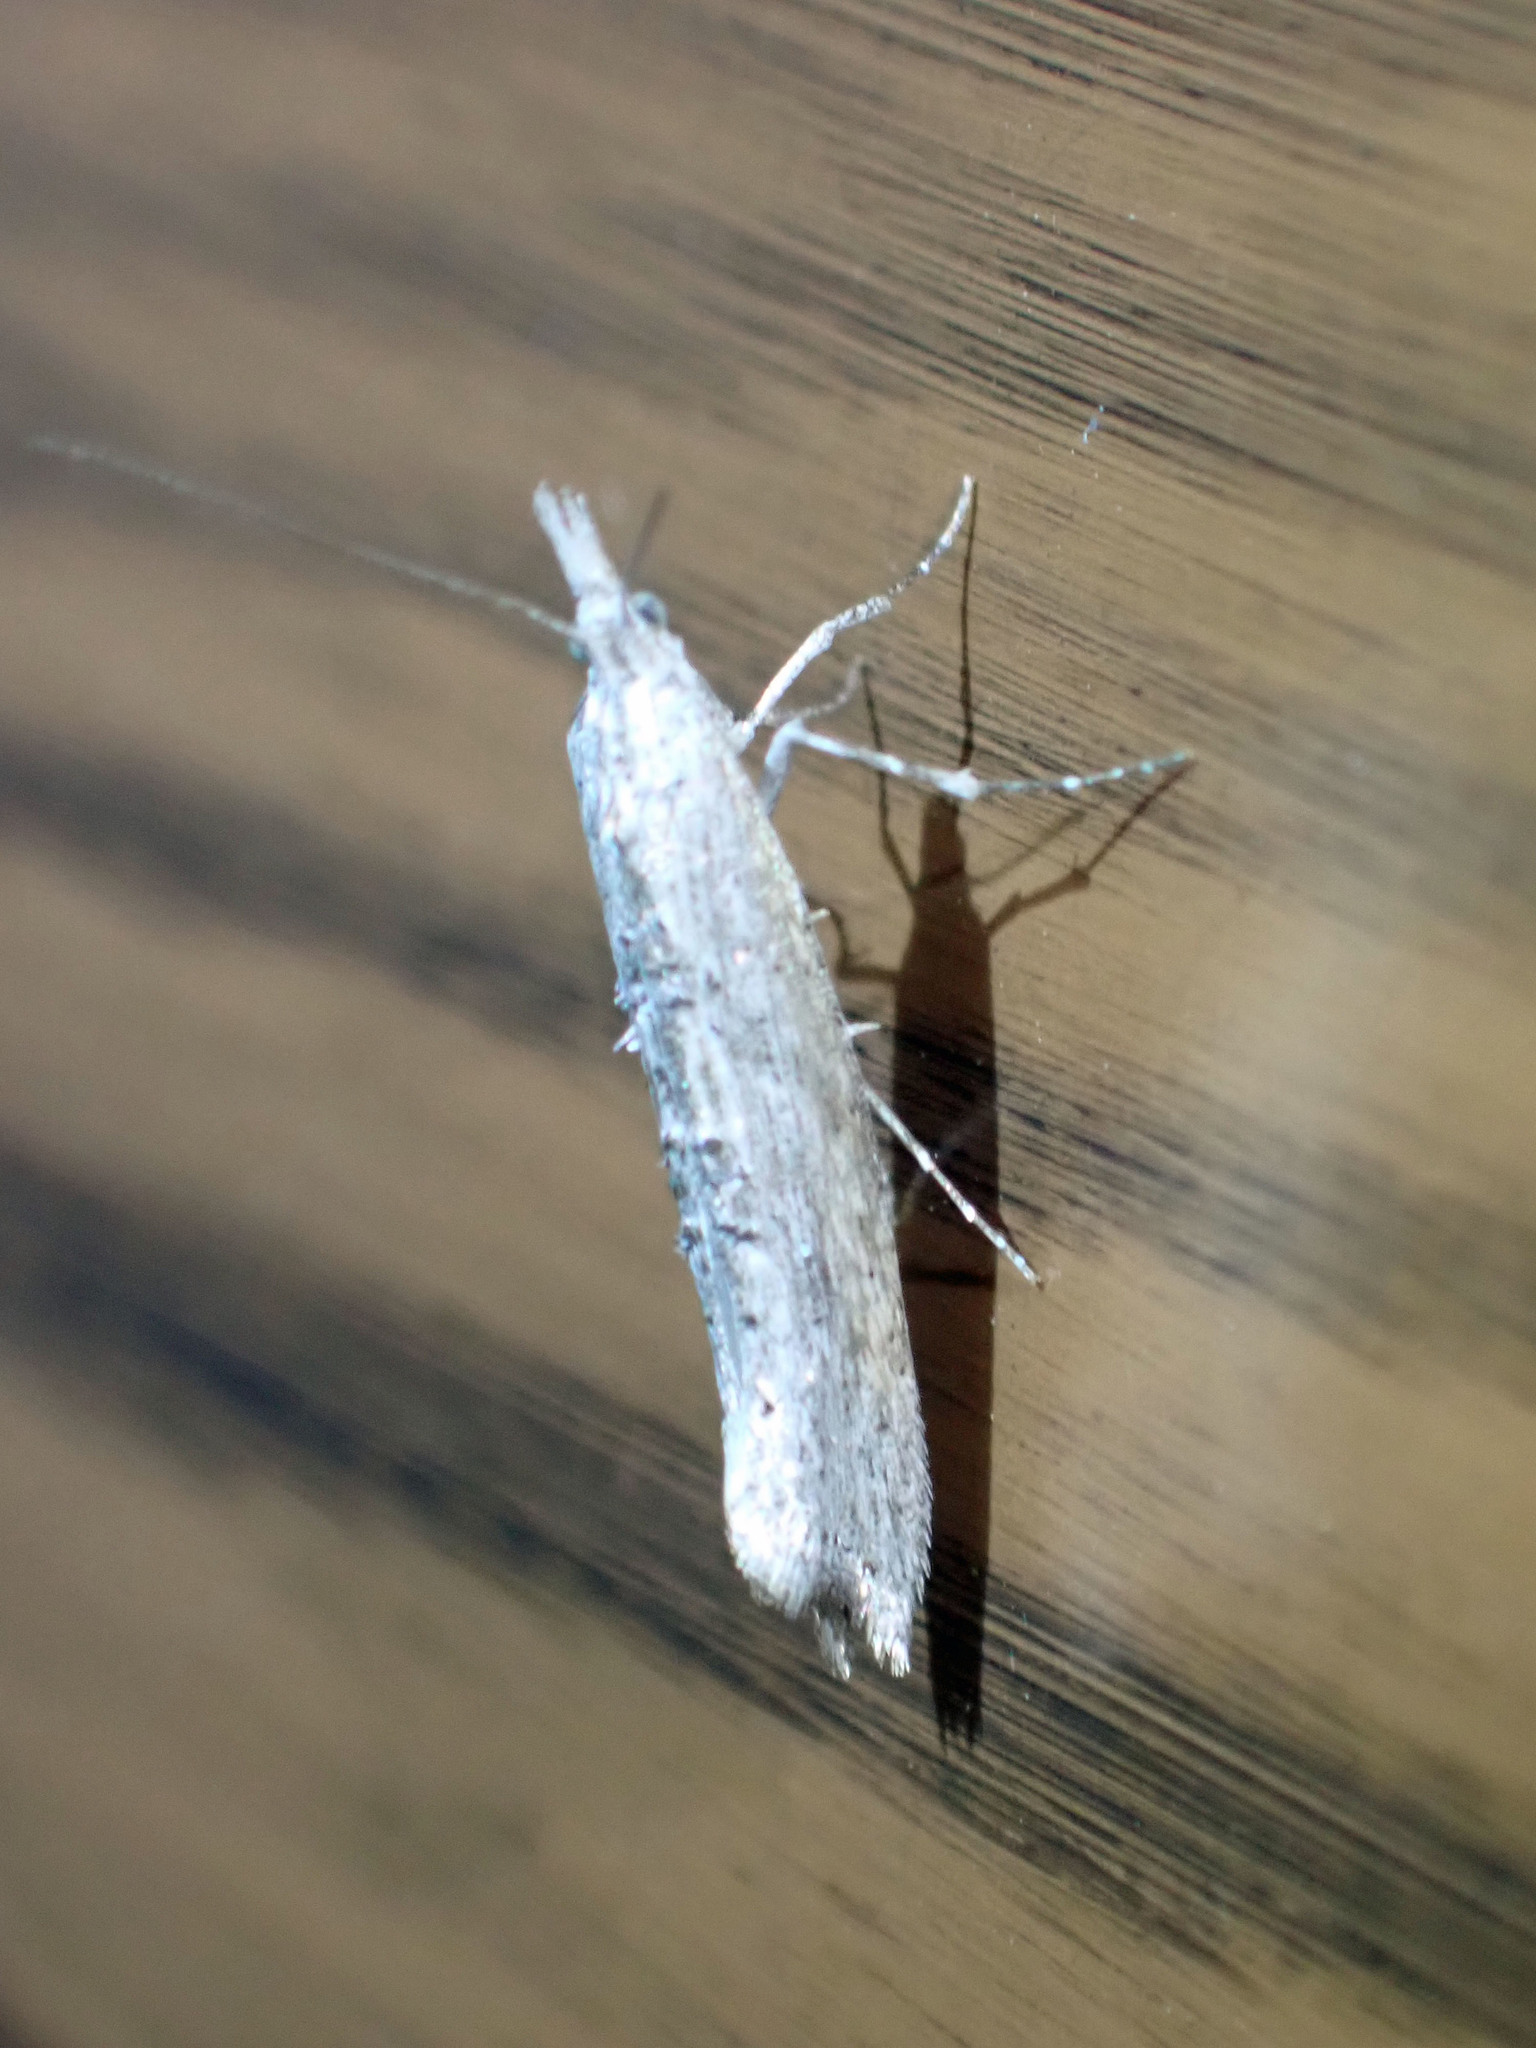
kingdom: Animalia
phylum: Arthropoda
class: Insecta
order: Lepidoptera
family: Ypsolophidae
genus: Ypsolopha
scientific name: Ypsolopha falciferella
